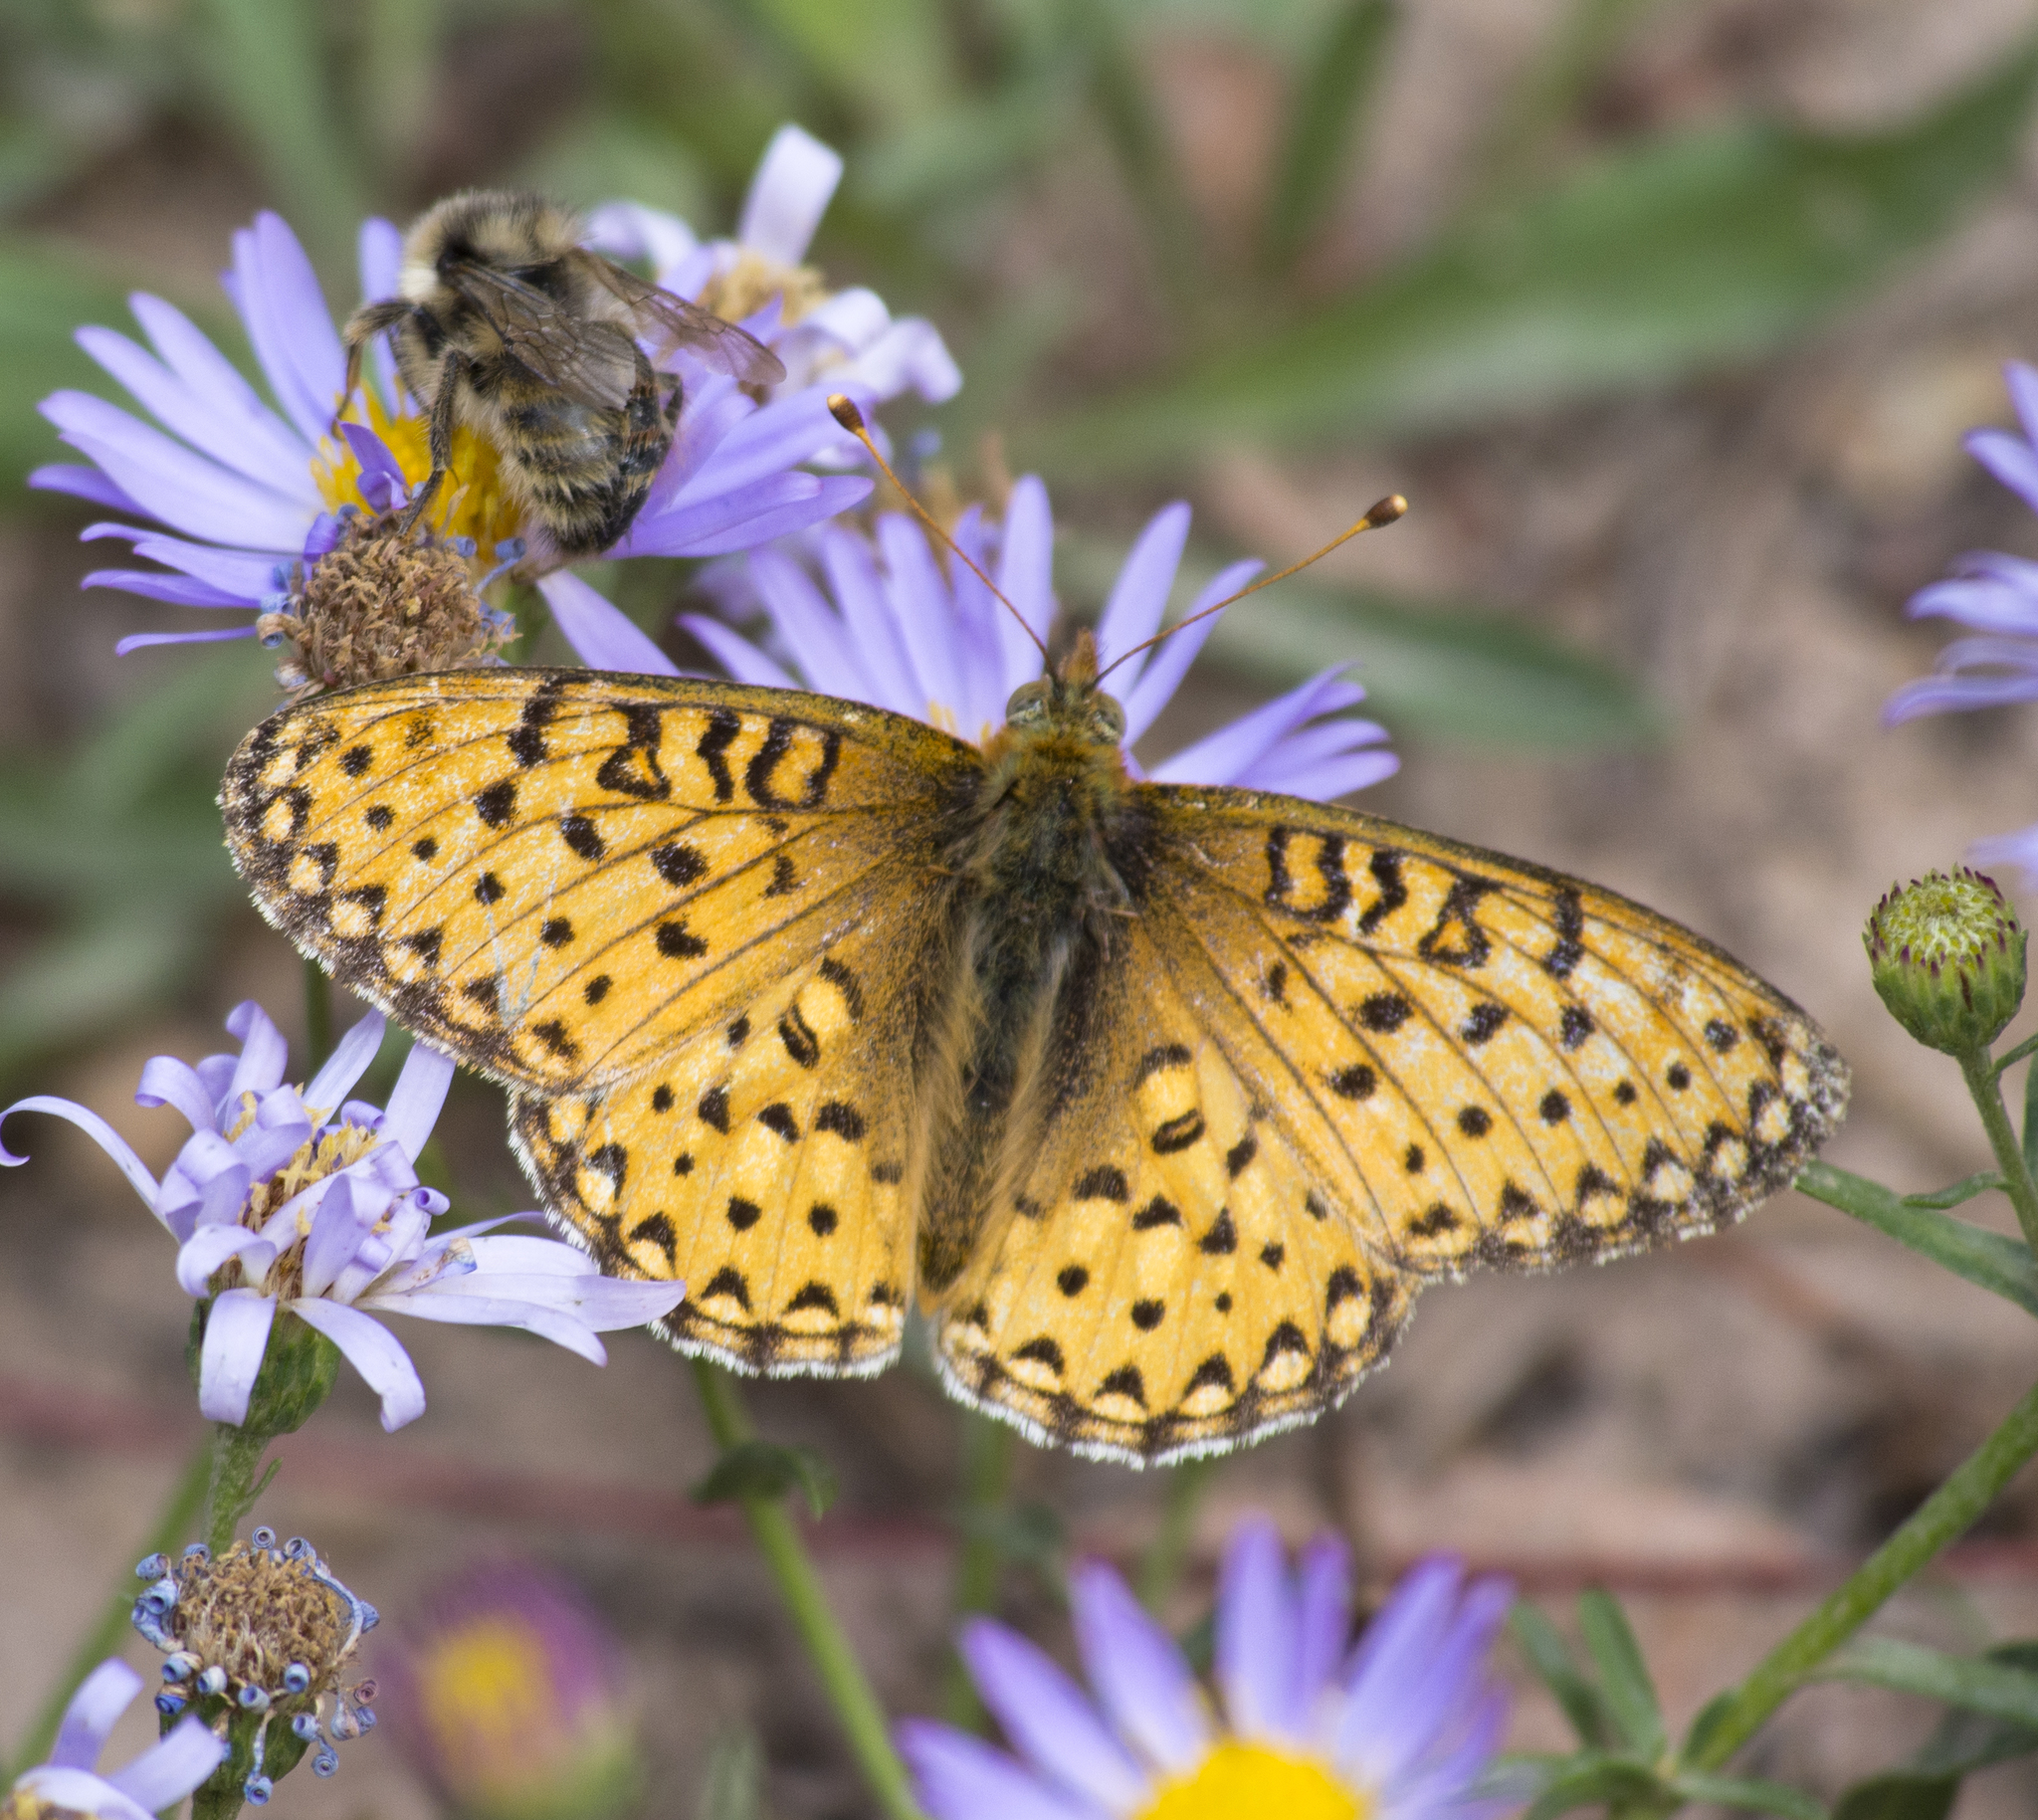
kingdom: Animalia
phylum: Arthropoda
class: Insecta
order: Lepidoptera
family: Nymphalidae
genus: Speyeria
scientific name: Speyeria mormonia
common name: Mormon fritillary
